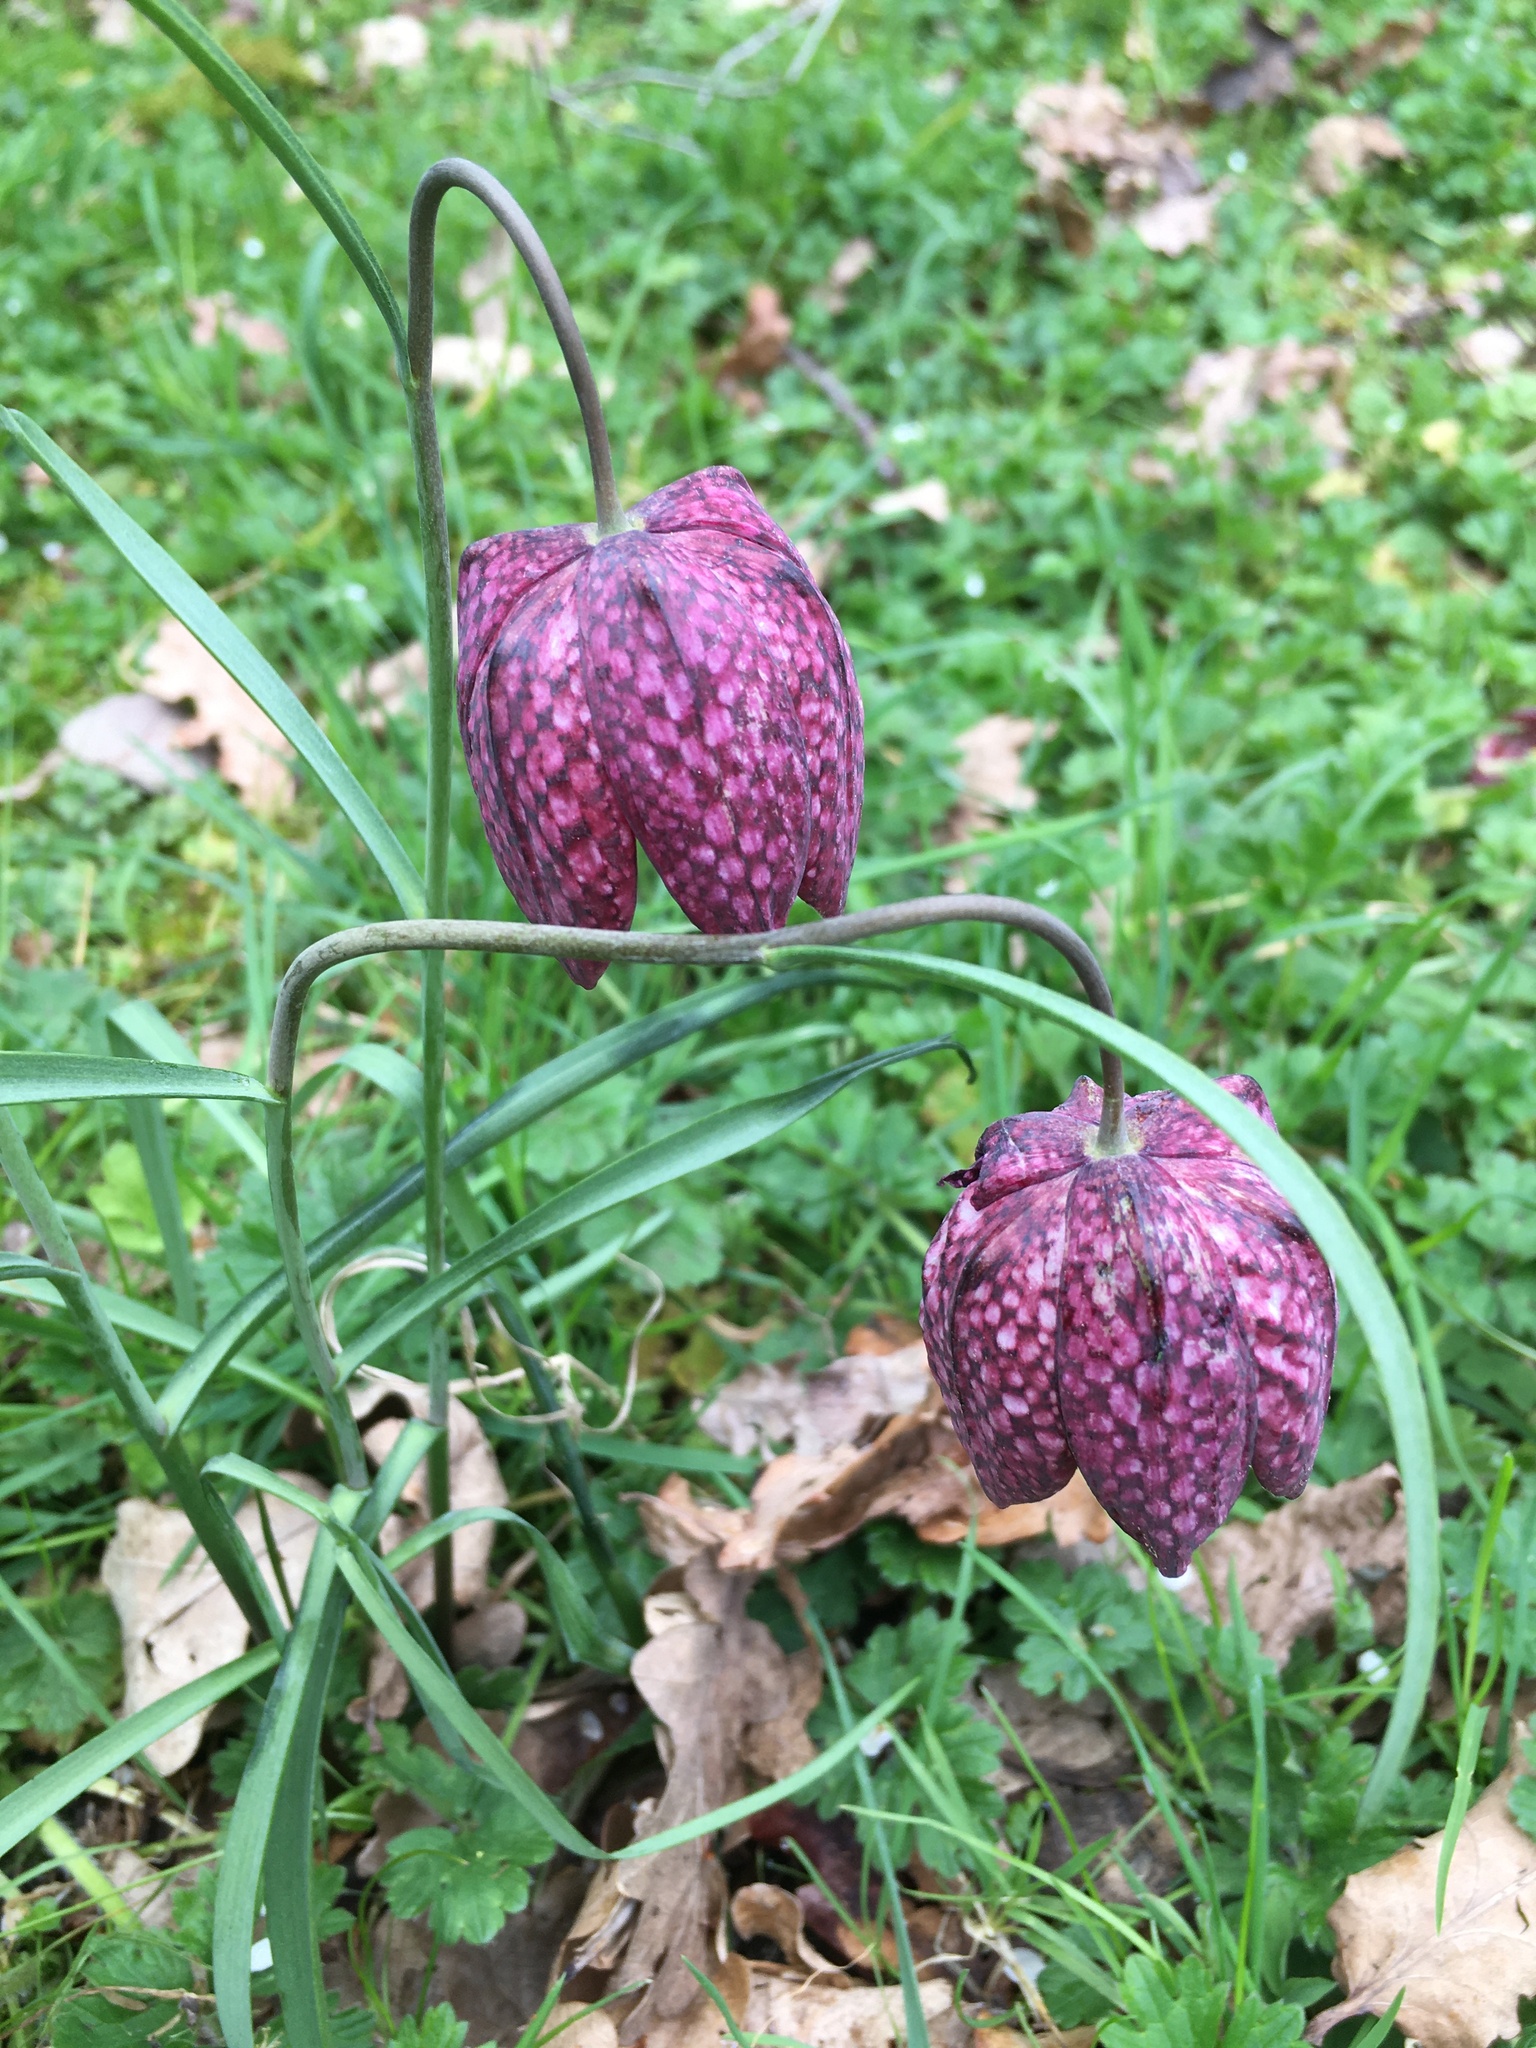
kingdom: Plantae
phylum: Tracheophyta
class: Liliopsida
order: Liliales
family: Liliaceae
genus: Fritillaria
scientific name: Fritillaria meleagris
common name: Fritillary
